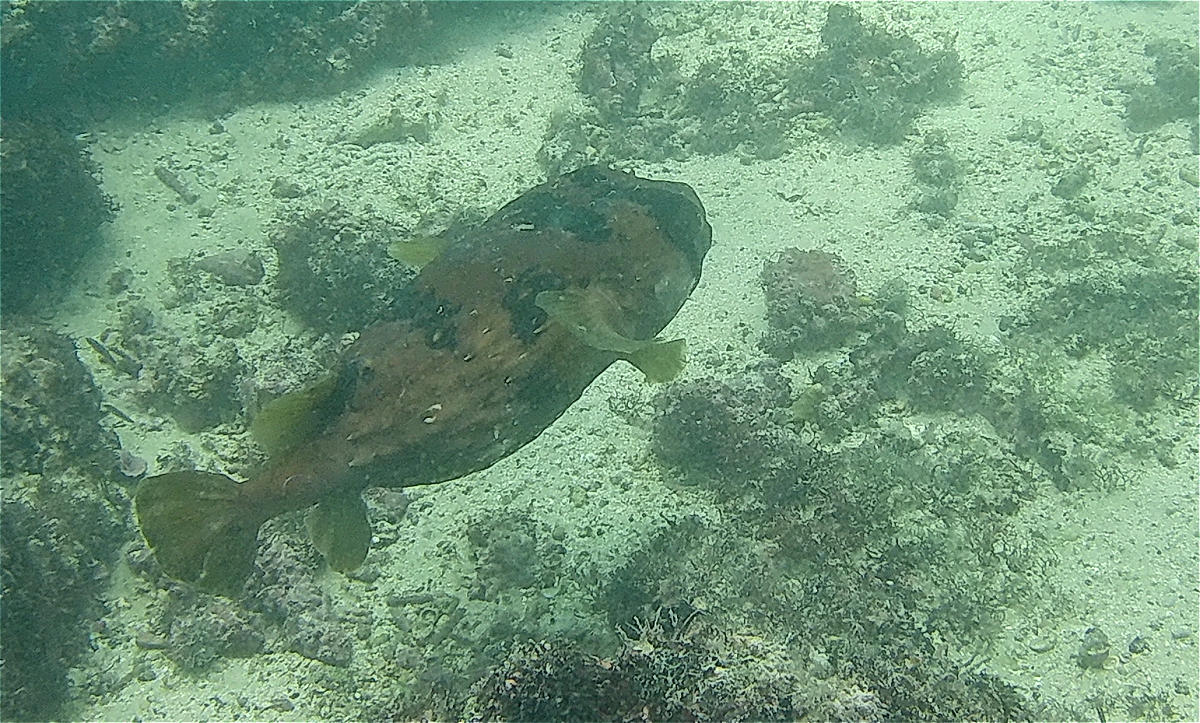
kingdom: Animalia
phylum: Chordata
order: Tetraodontiformes
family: Diodontidae
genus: Diodon
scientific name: Diodon holocanthus
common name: Balloonfish
